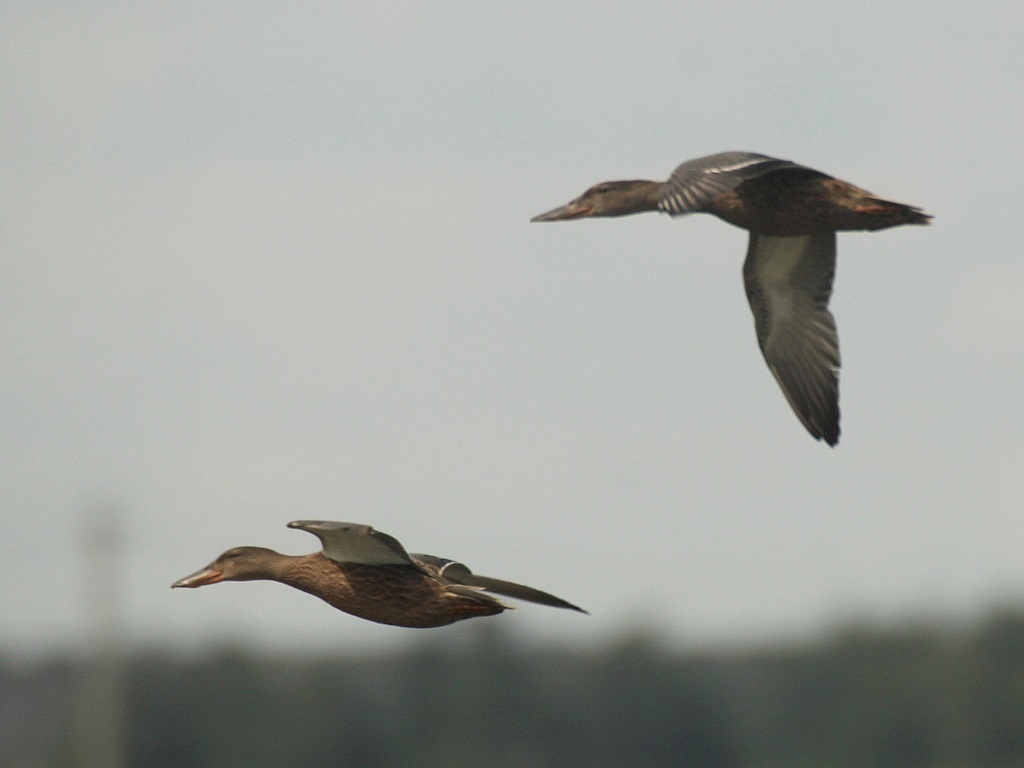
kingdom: Animalia
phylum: Chordata
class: Aves
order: Anseriformes
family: Anatidae
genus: Spatula
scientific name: Spatula clypeata
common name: Northern shoveler
